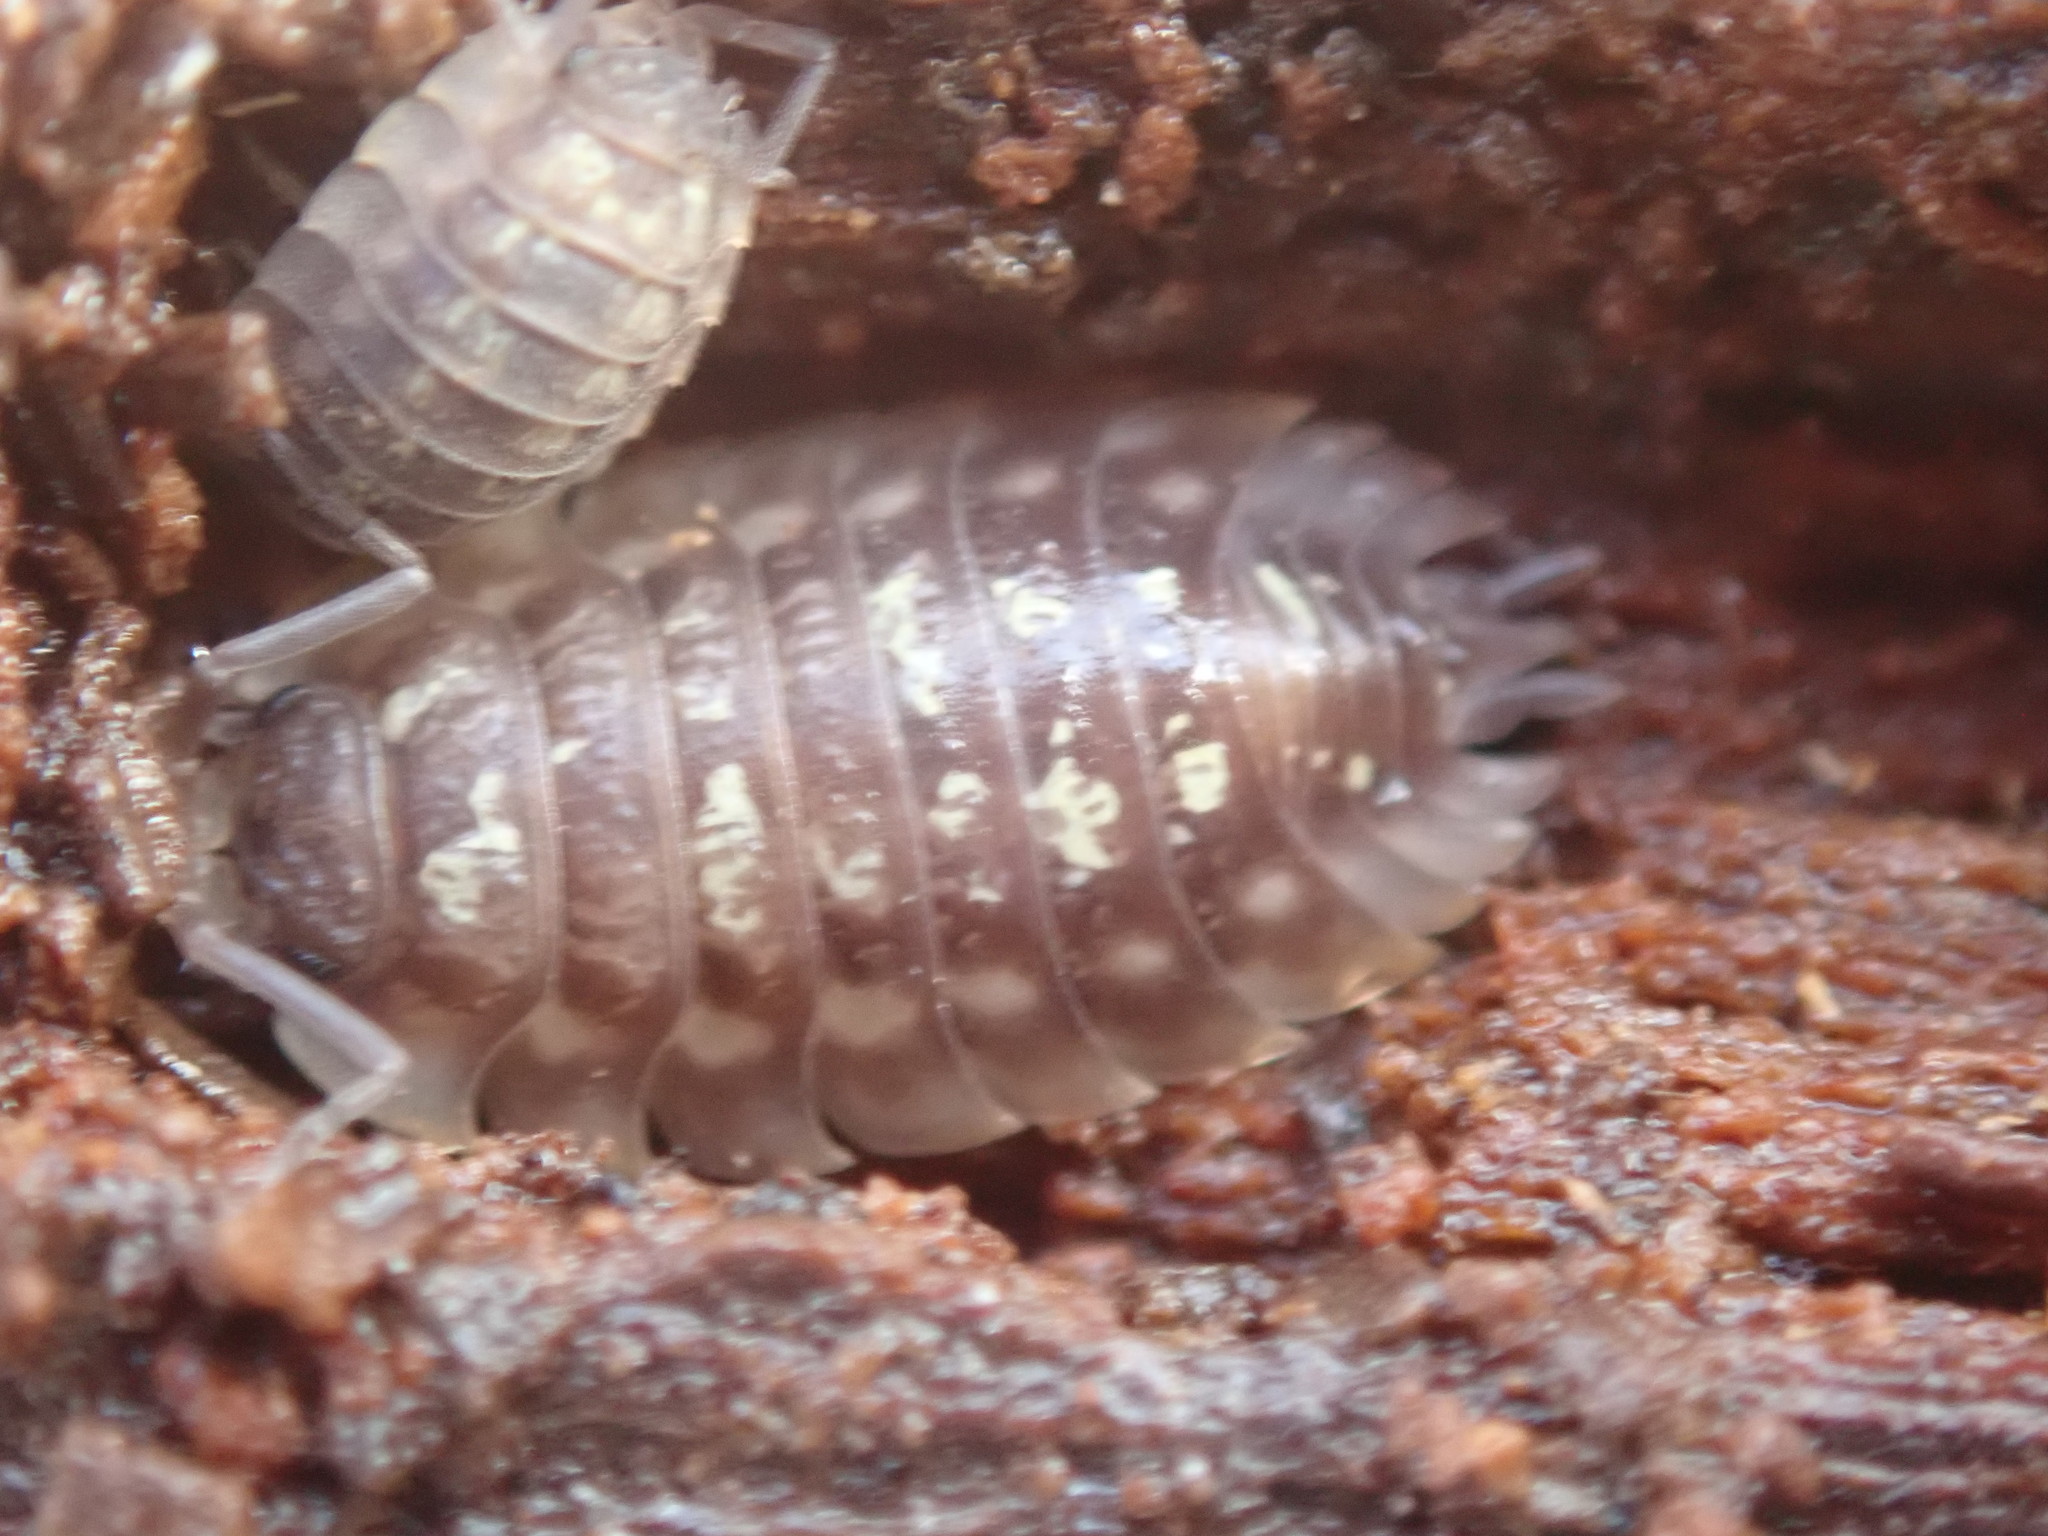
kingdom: Animalia
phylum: Arthropoda
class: Malacostraca
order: Isopoda
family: Oniscidae
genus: Oniscus
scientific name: Oniscus asellus
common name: Common shiny woodlouse
